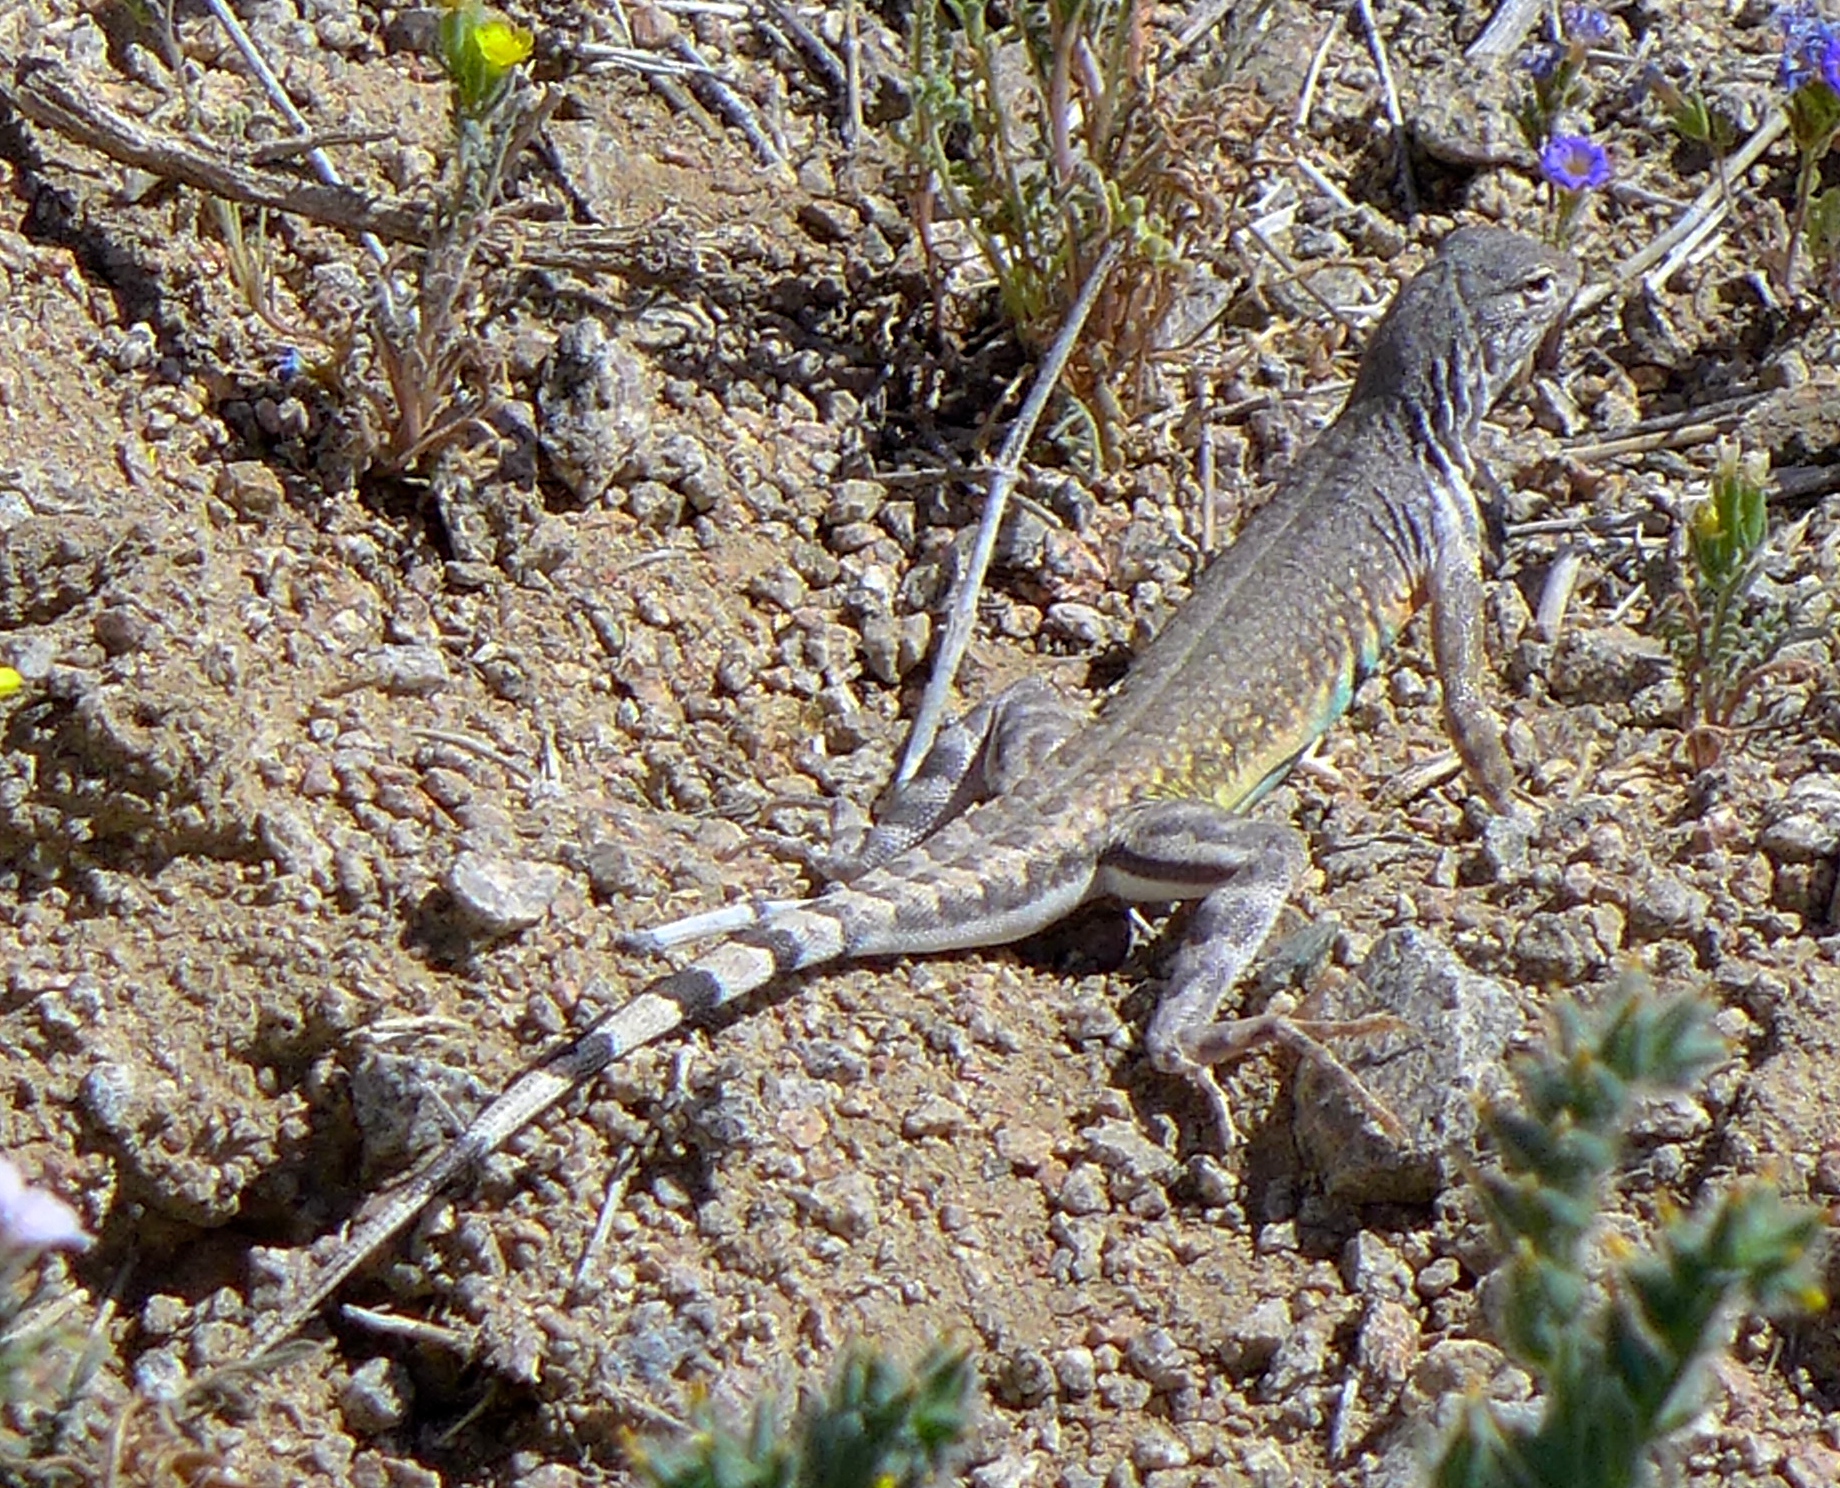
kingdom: Animalia
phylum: Chordata
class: Squamata
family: Phrynosomatidae
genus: Callisaurus
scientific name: Callisaurus draconoides
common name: Zebra-tailed lizard
